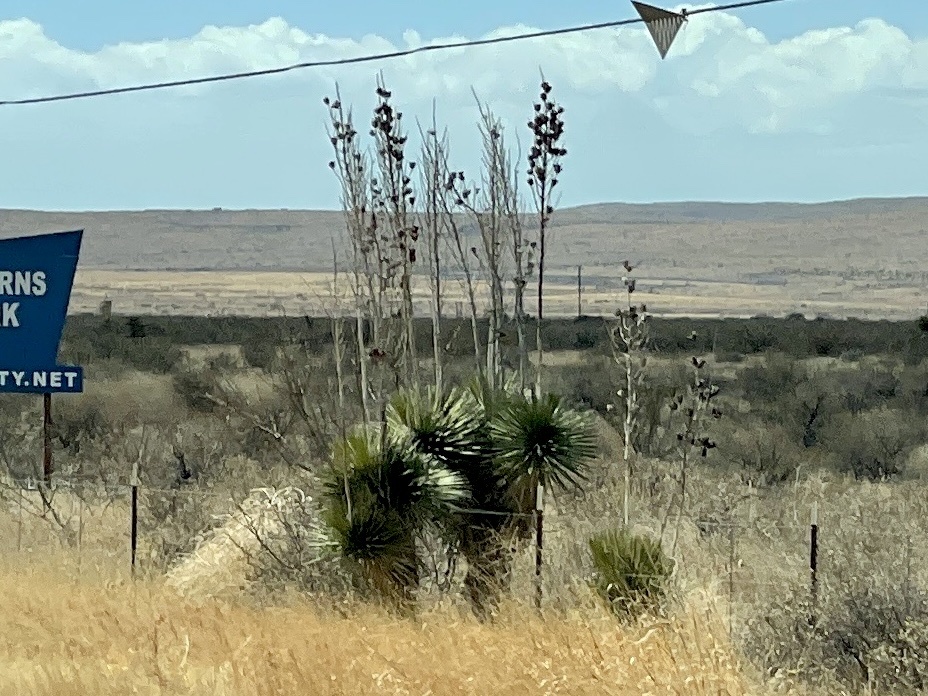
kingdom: Plantae
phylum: Tracheophyta
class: Liliopsida
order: Asparagales
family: Asparagaceae
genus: Yucca
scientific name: Yucca elata
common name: Palmella
